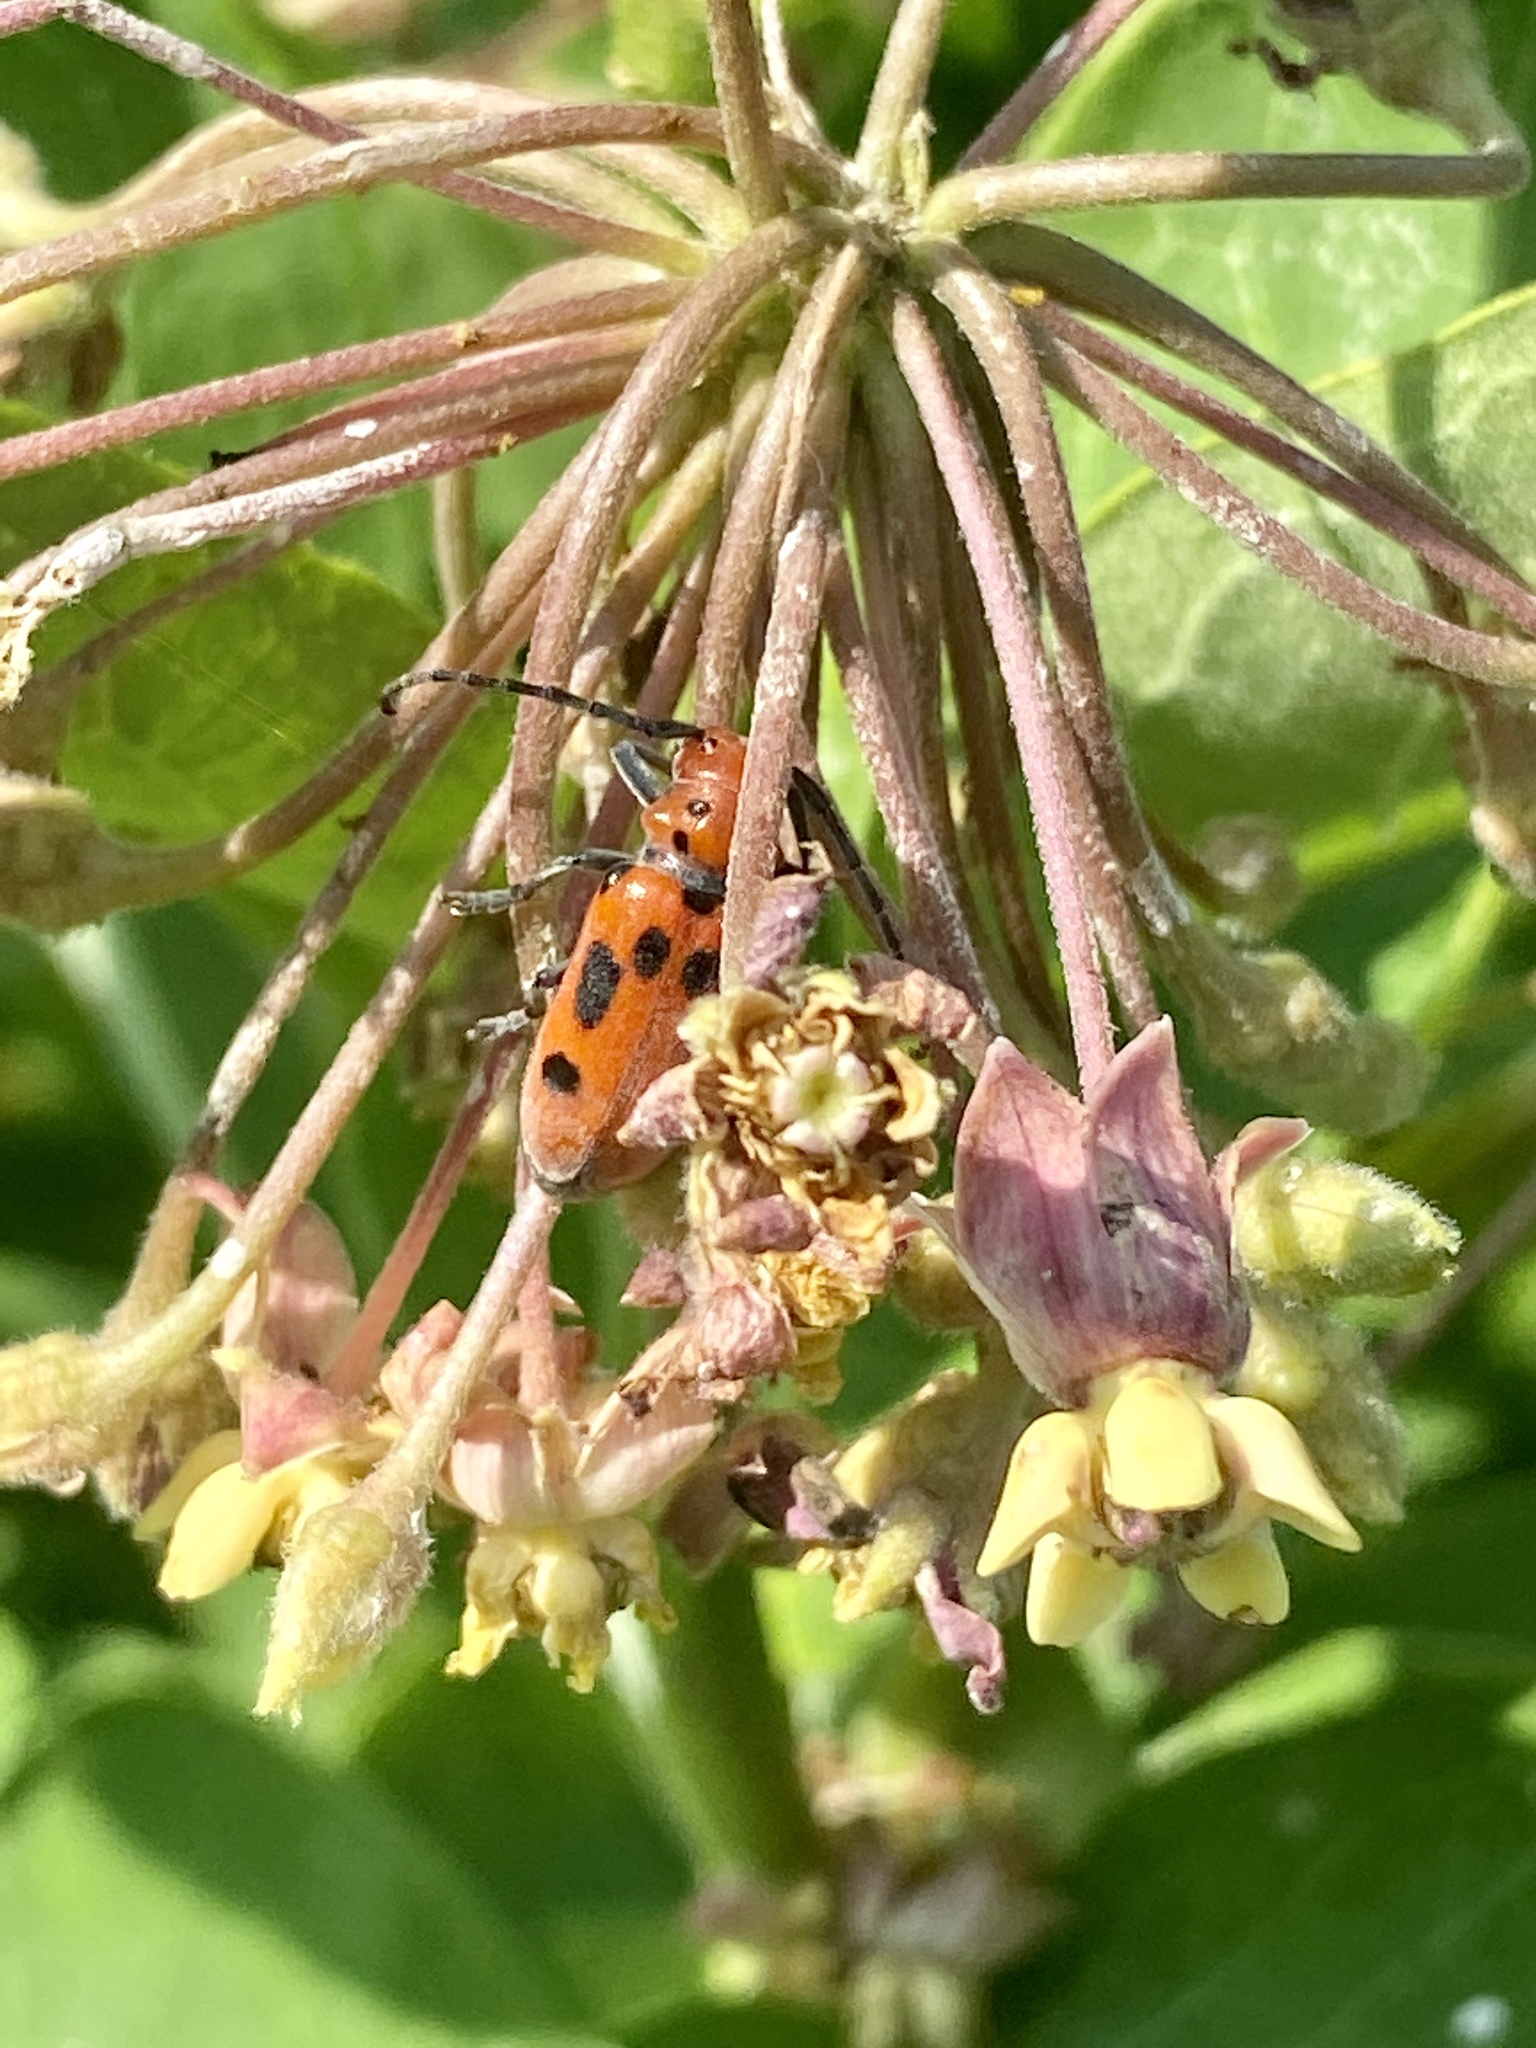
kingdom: Animalia
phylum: Arthropoda
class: Insecta
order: Coleoptera
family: Cerambycidae
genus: Tetraopes
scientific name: Tetraopes tetrophthalmus
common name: Red milkweed beetle
